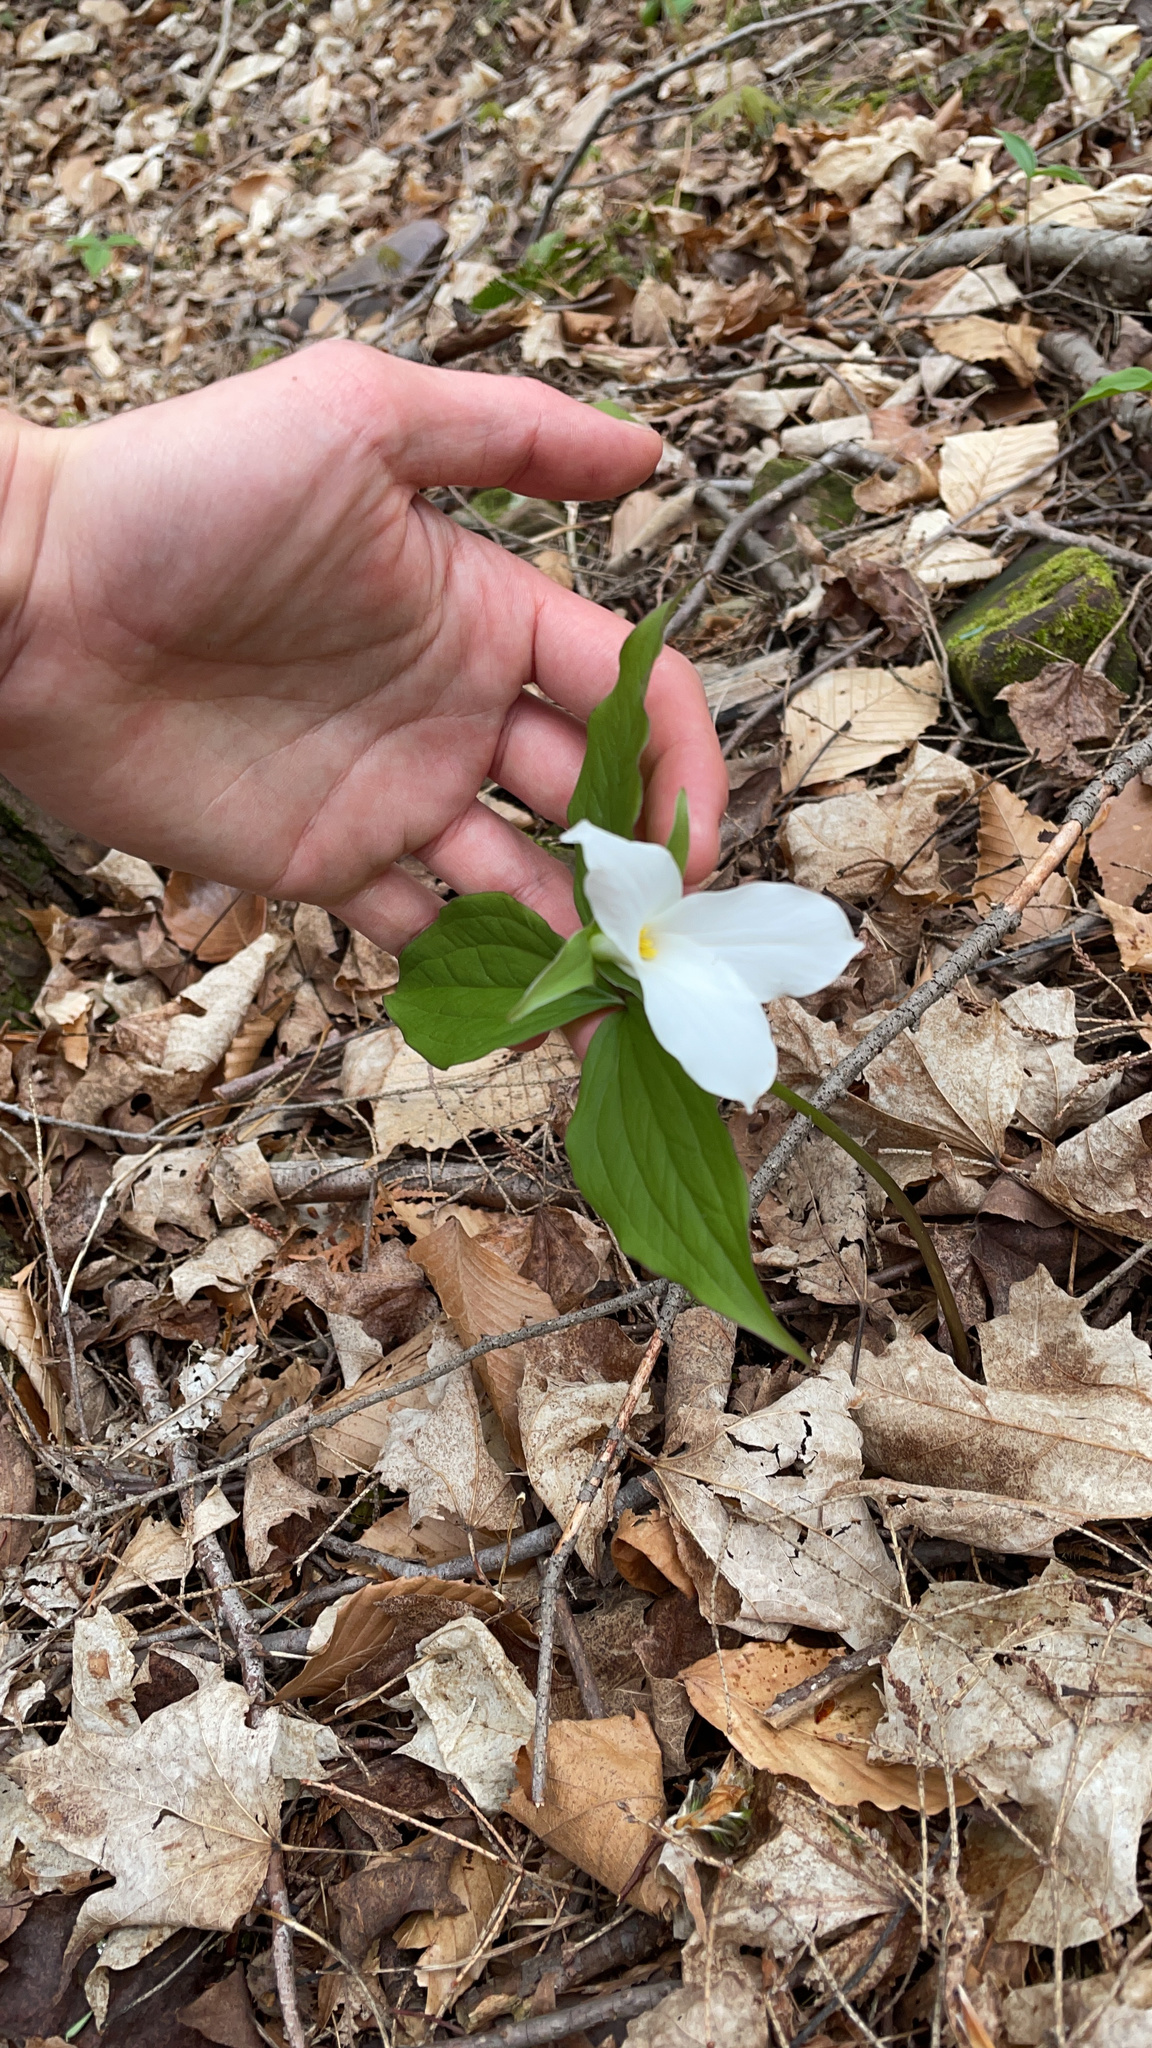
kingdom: Plantae
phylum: Tracheophyta
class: Liliopsida
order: Liliales
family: Melanthiaceae
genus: Trillium
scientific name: Trillium grandiflorum
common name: Great white trillium
